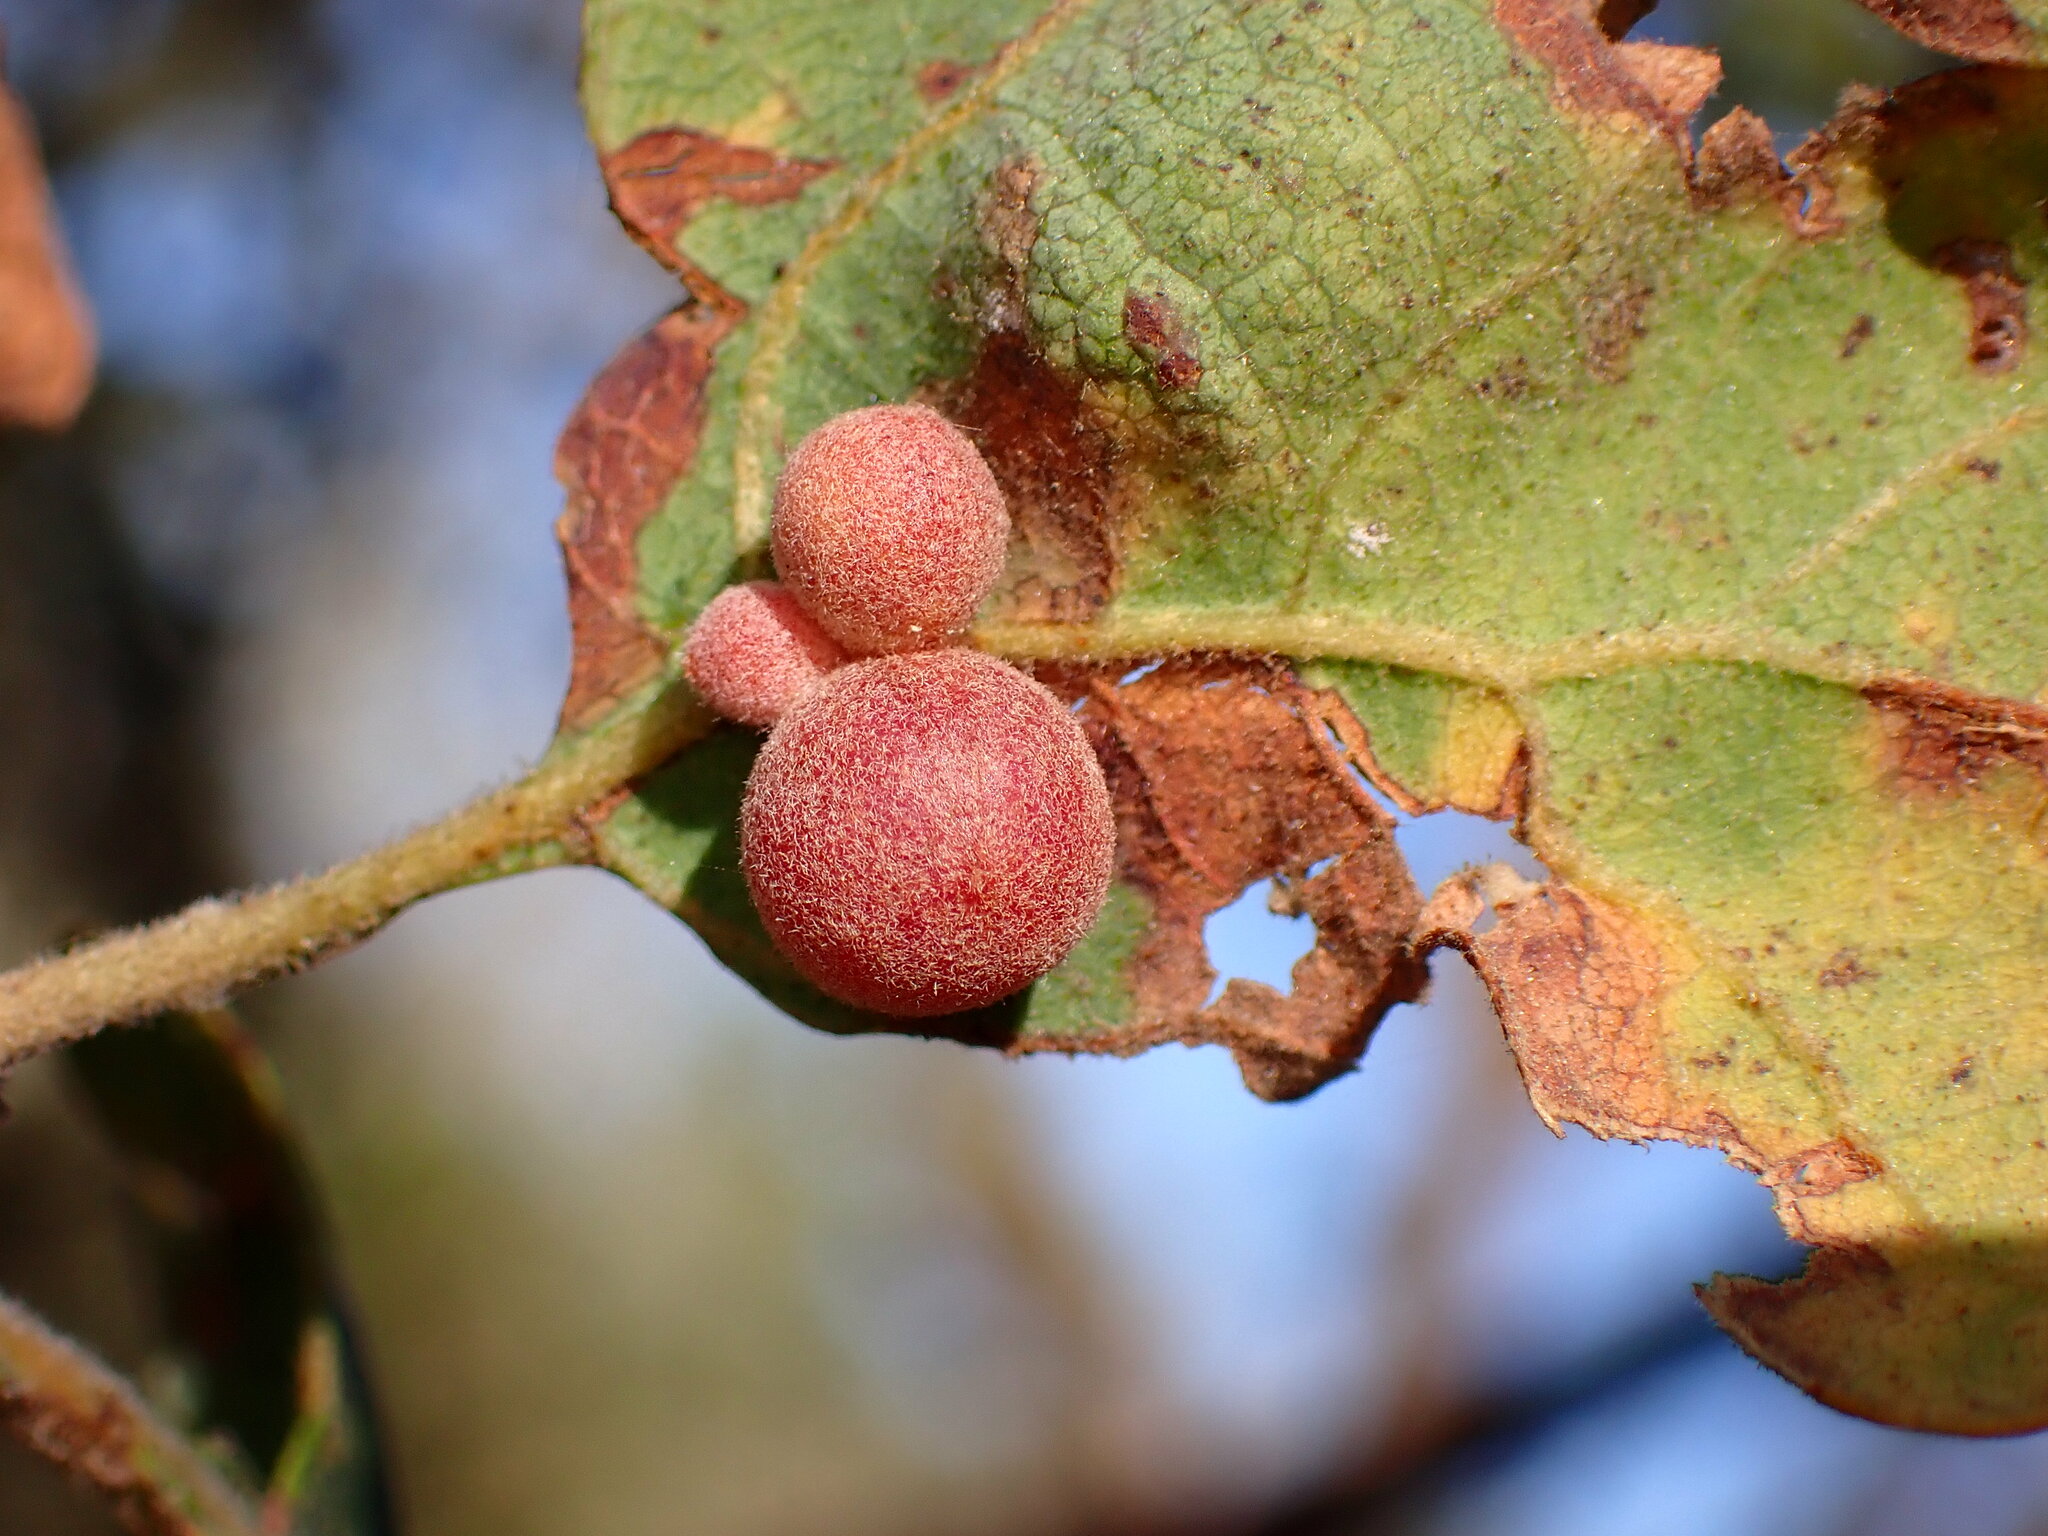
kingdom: Animalia
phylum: Arthropoda
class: Insecta
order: Hymenoptera
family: Cynipidae
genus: Andricus
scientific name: Andricus
